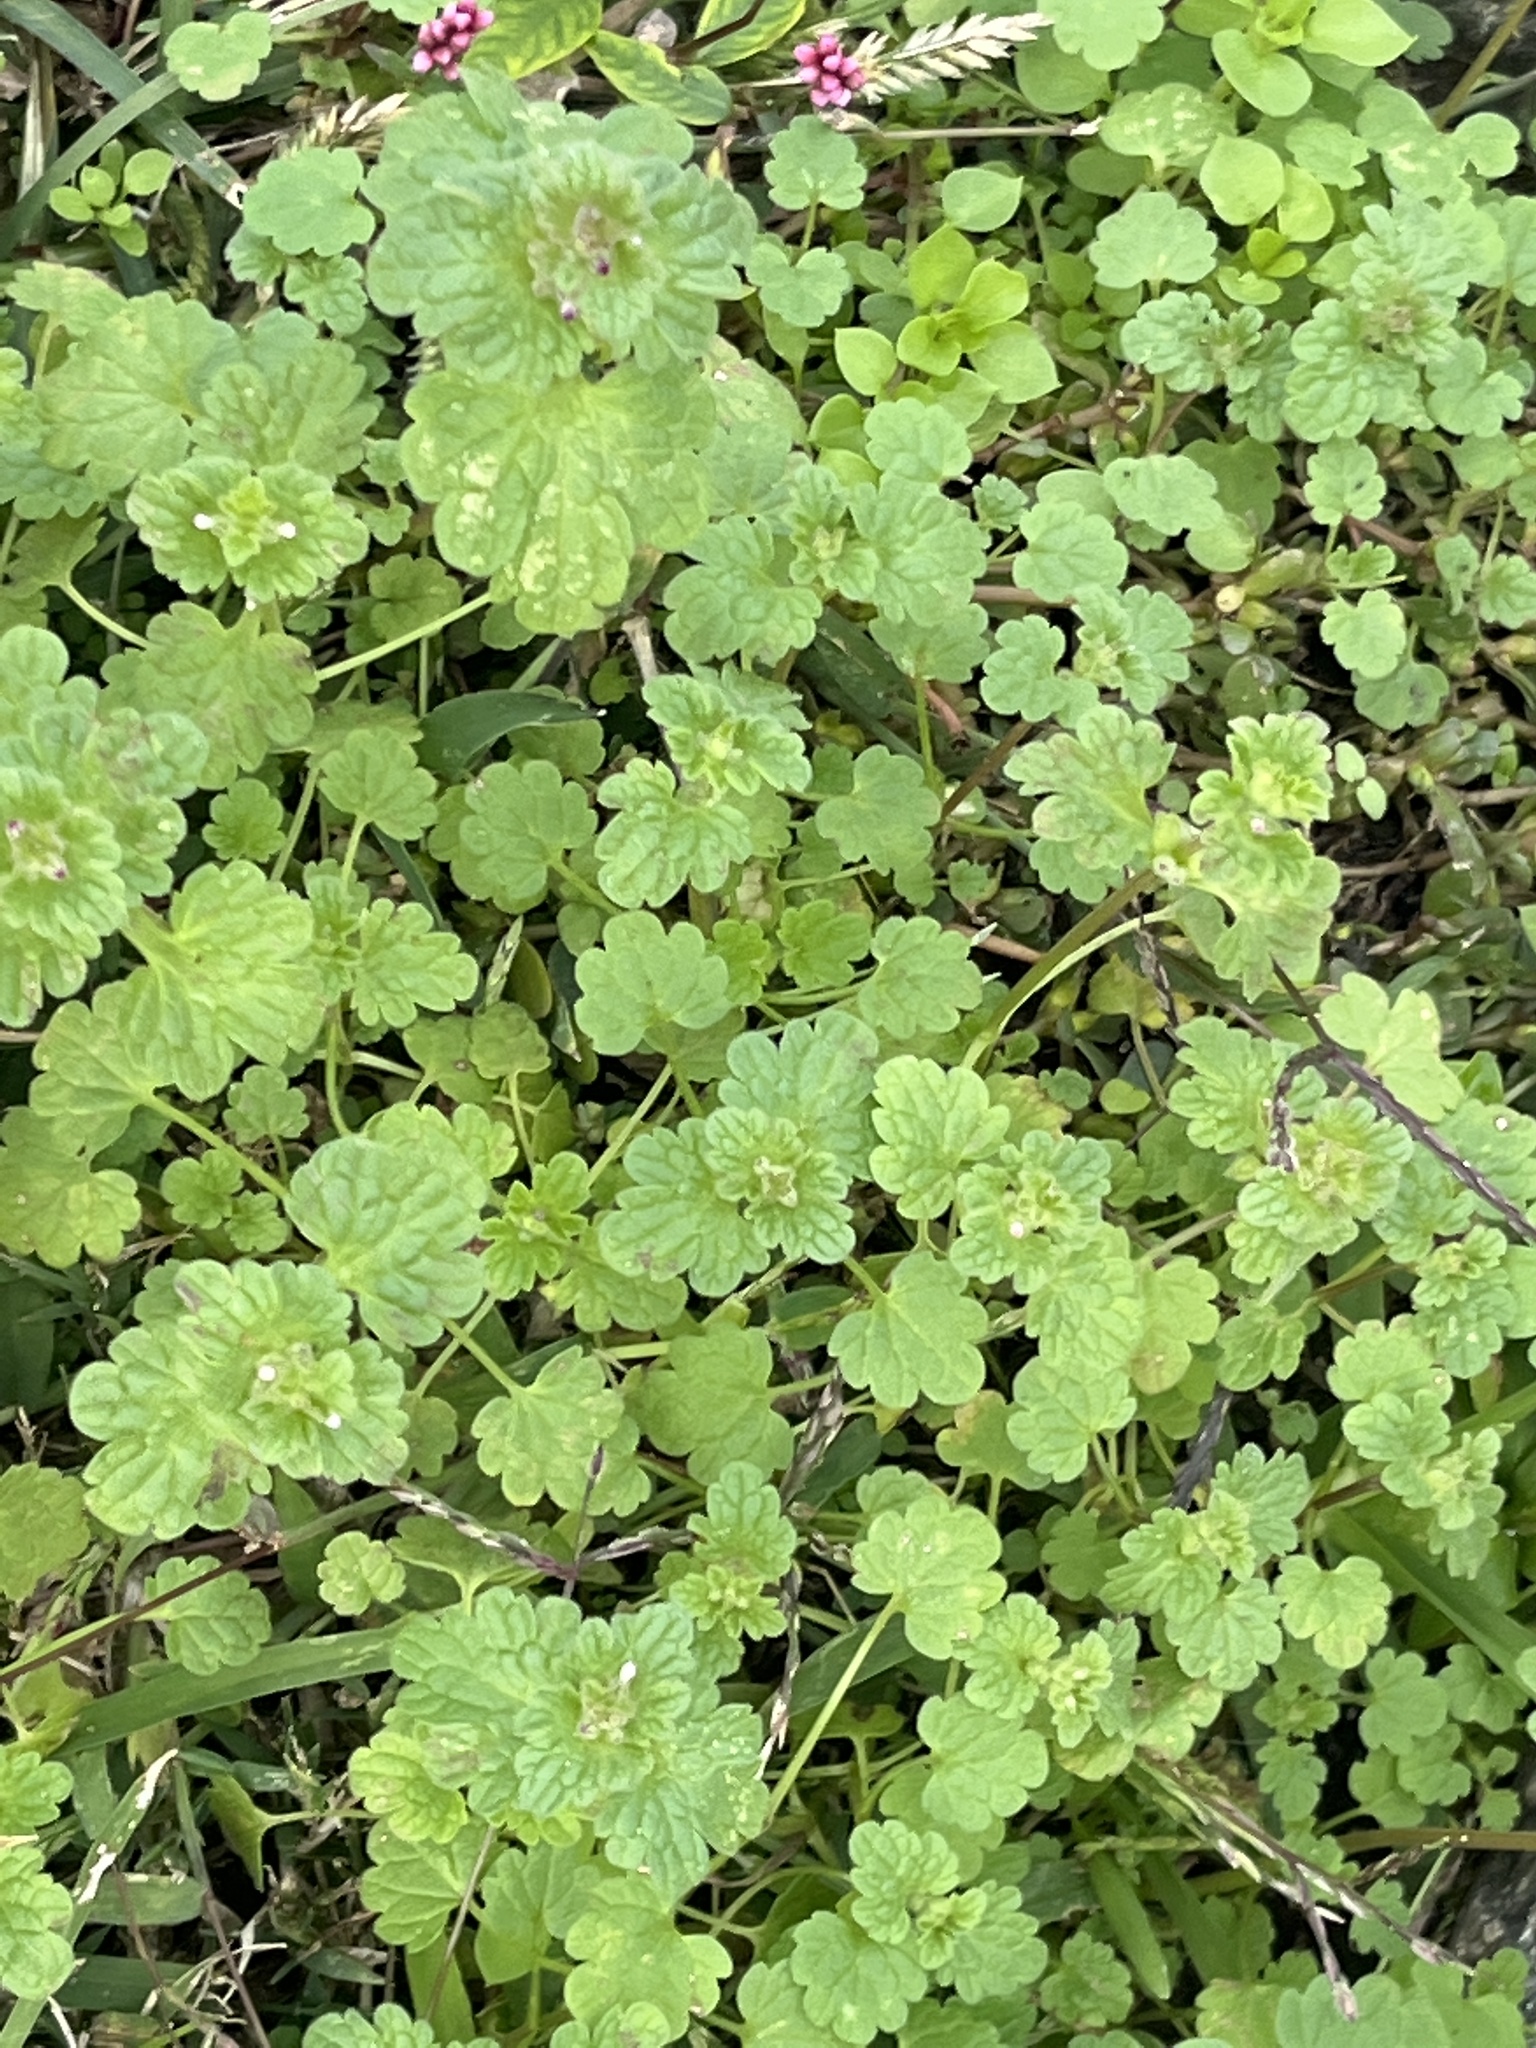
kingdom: Plantae
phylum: Tracheophyta
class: Magnoliopsida
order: Lamiales
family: Lamiaceae
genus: Lamium
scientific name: Lamium amplexicaule
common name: Henbit dead-nettle
